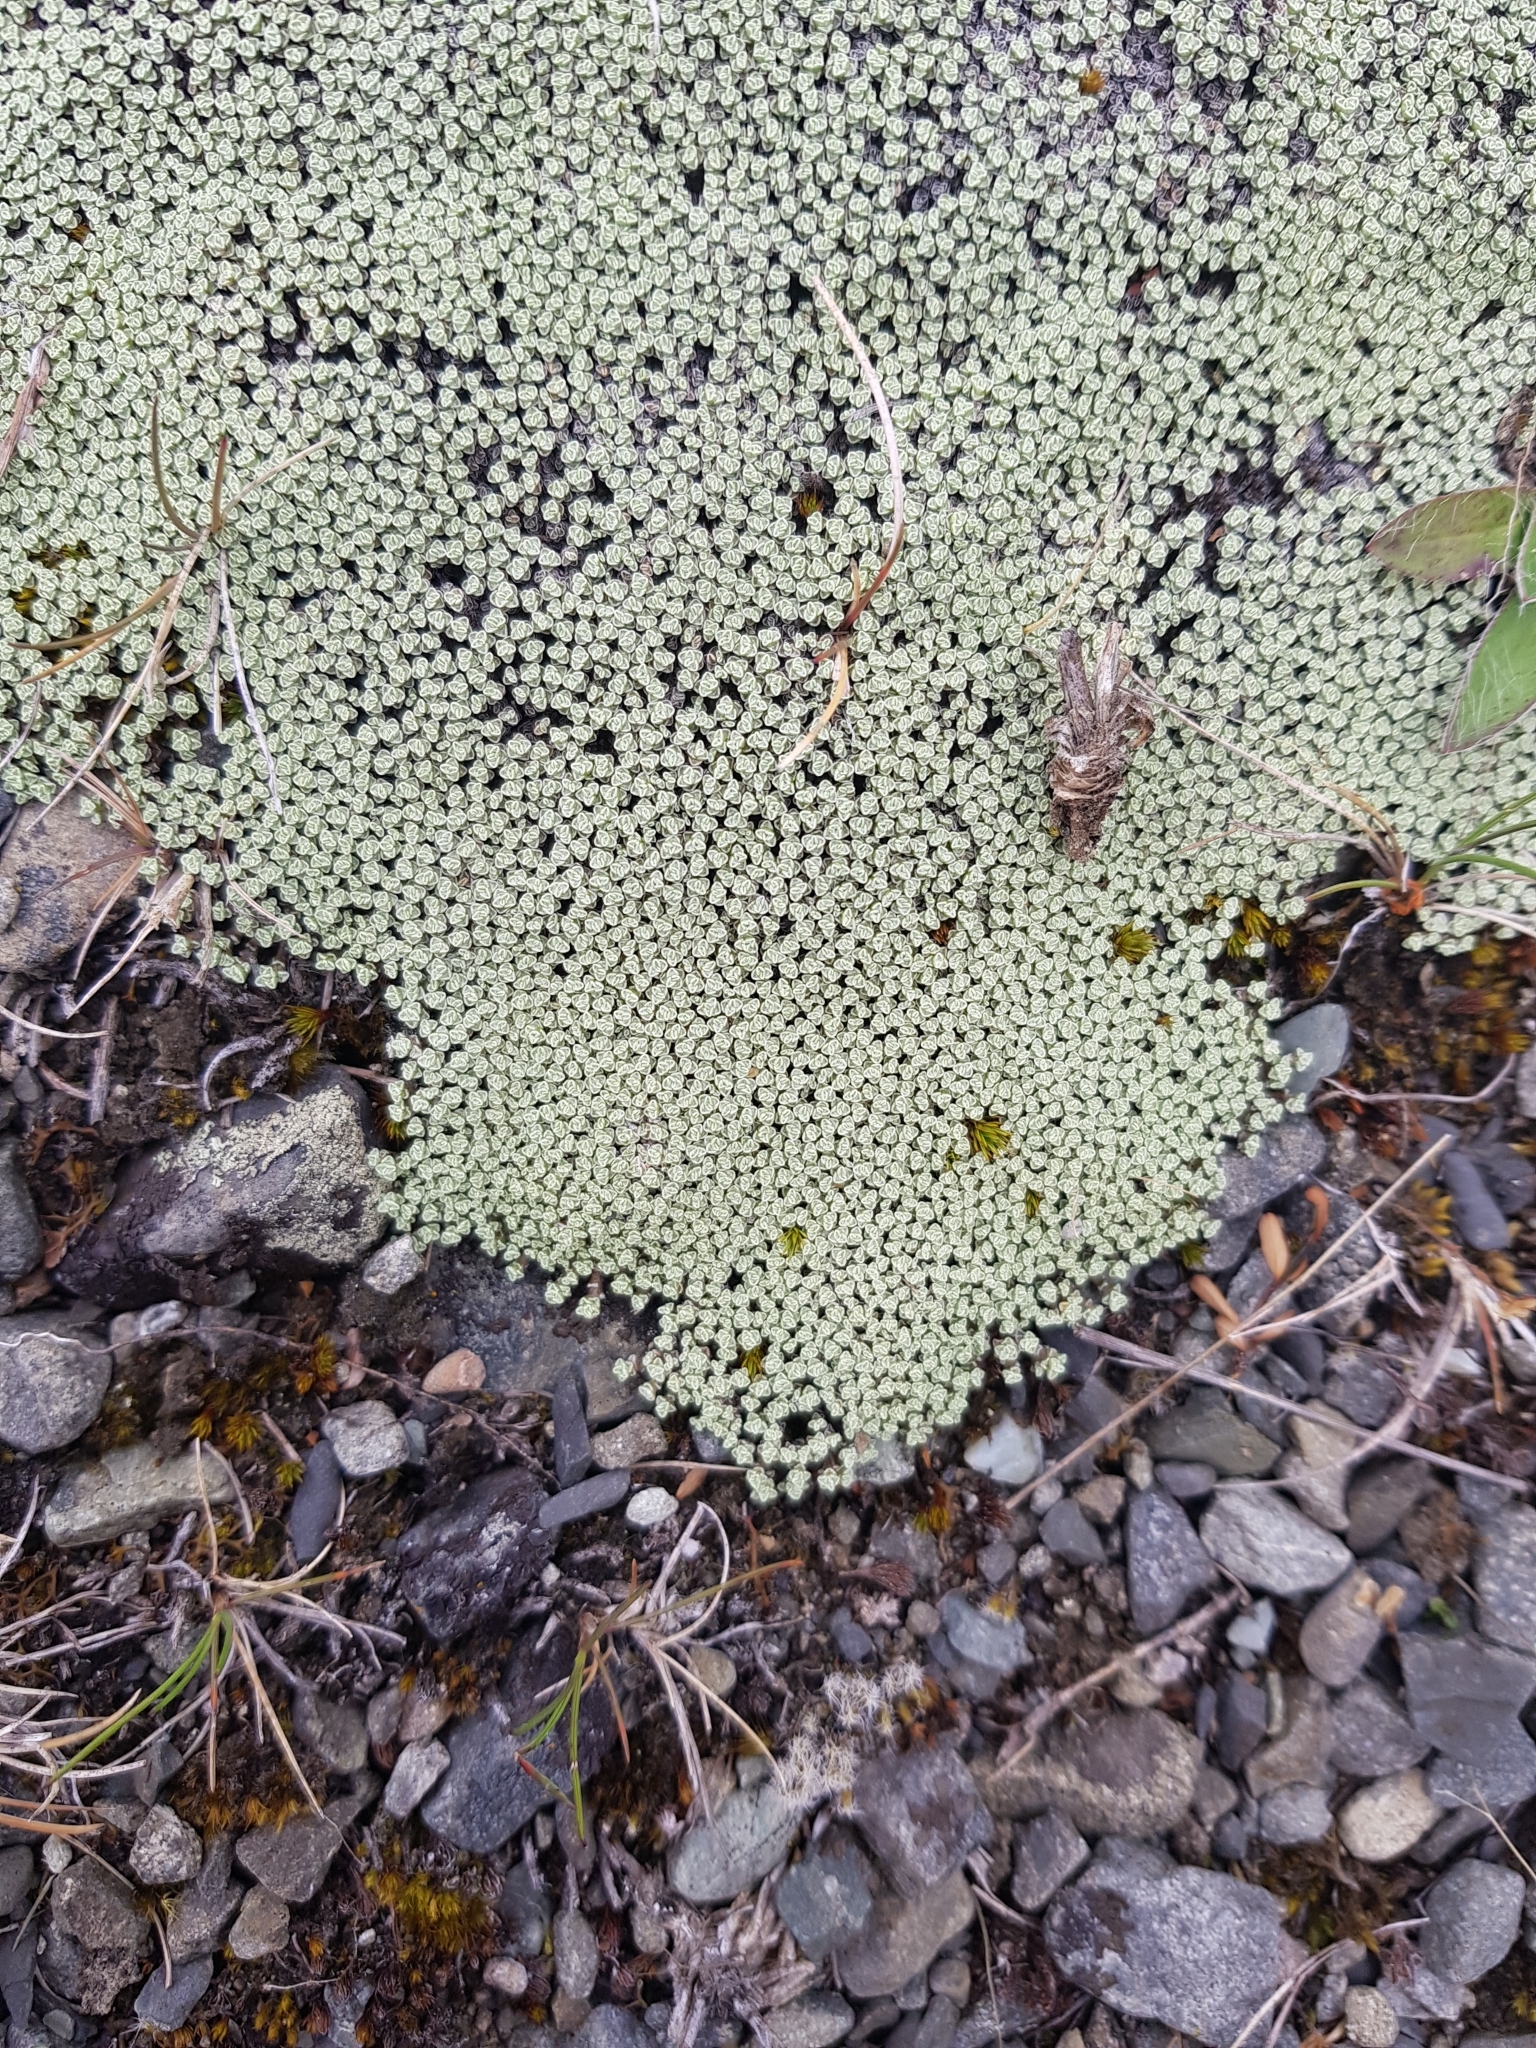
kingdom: Plantae
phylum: Tracheophyta
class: Magnoliopsida
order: Asterales
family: Asteraceae
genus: Raoulia
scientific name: Raoulia australis
